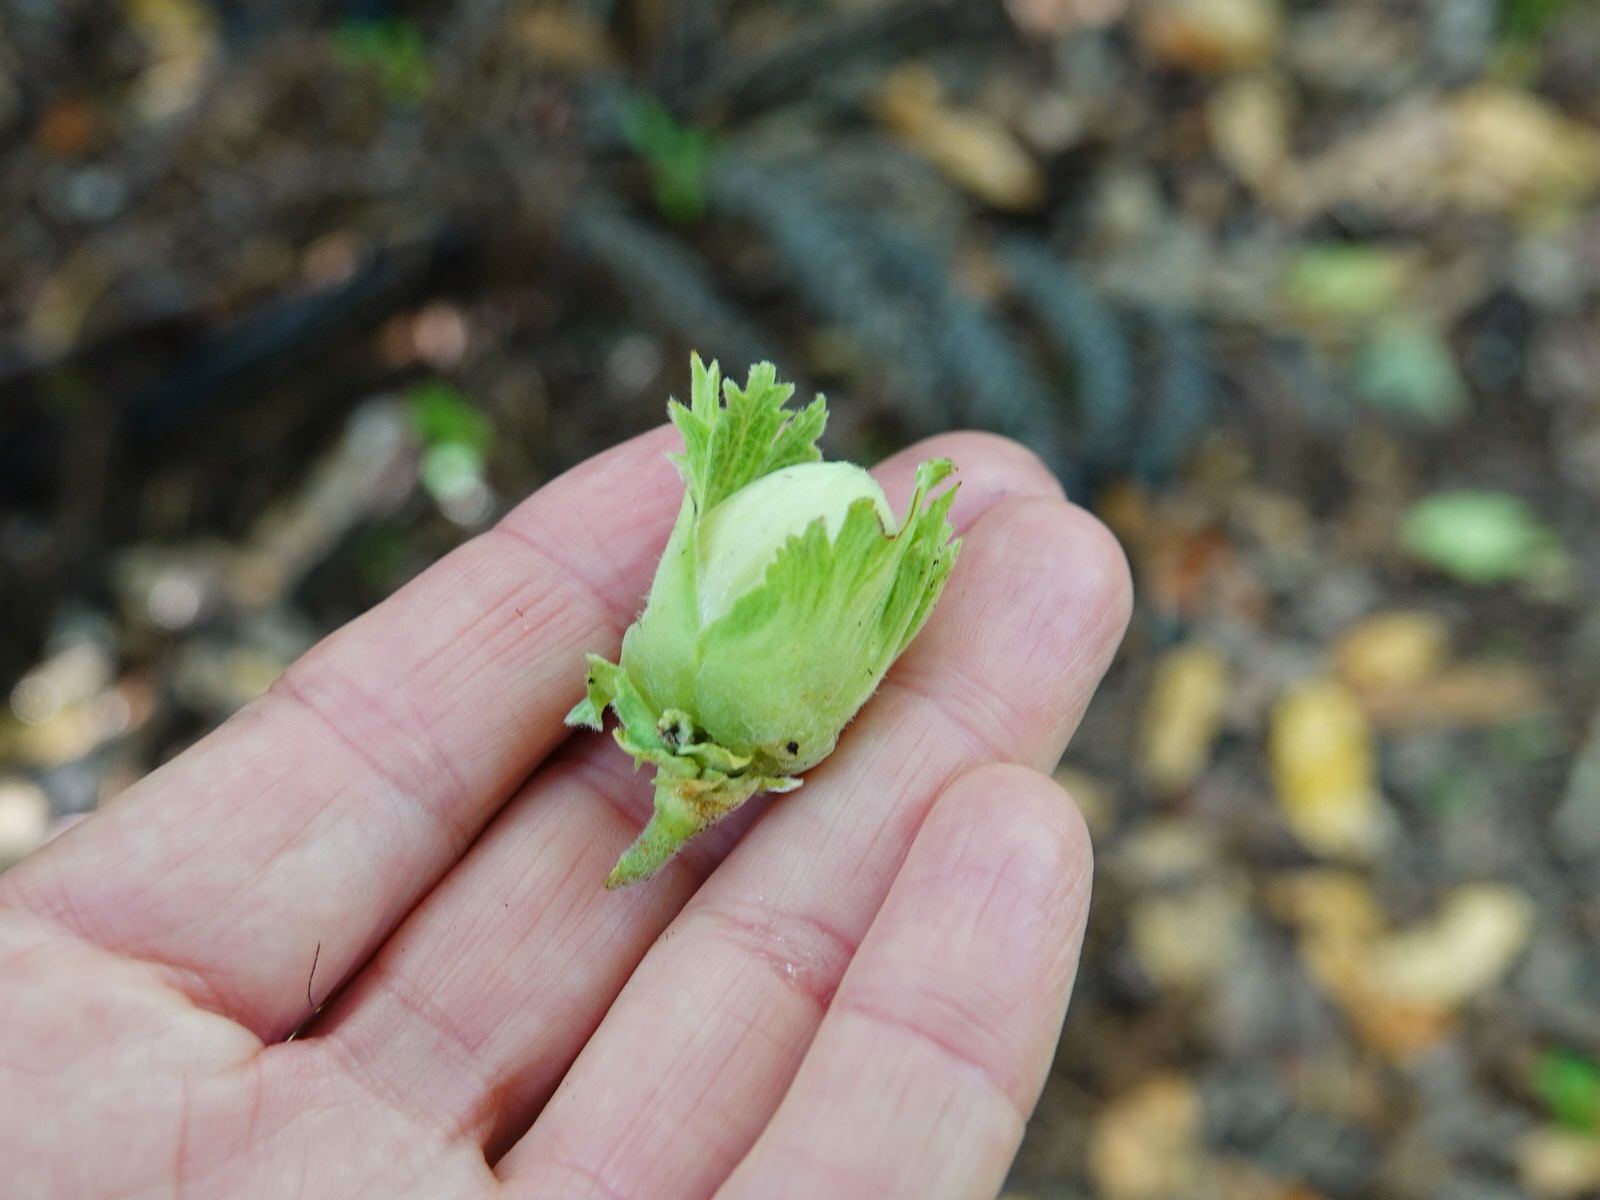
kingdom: Plantae
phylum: Tracheophyta
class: Magnoliopsida
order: Fagales
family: Betulaceae
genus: Corylus
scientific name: Corylus avellana
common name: European hazel
